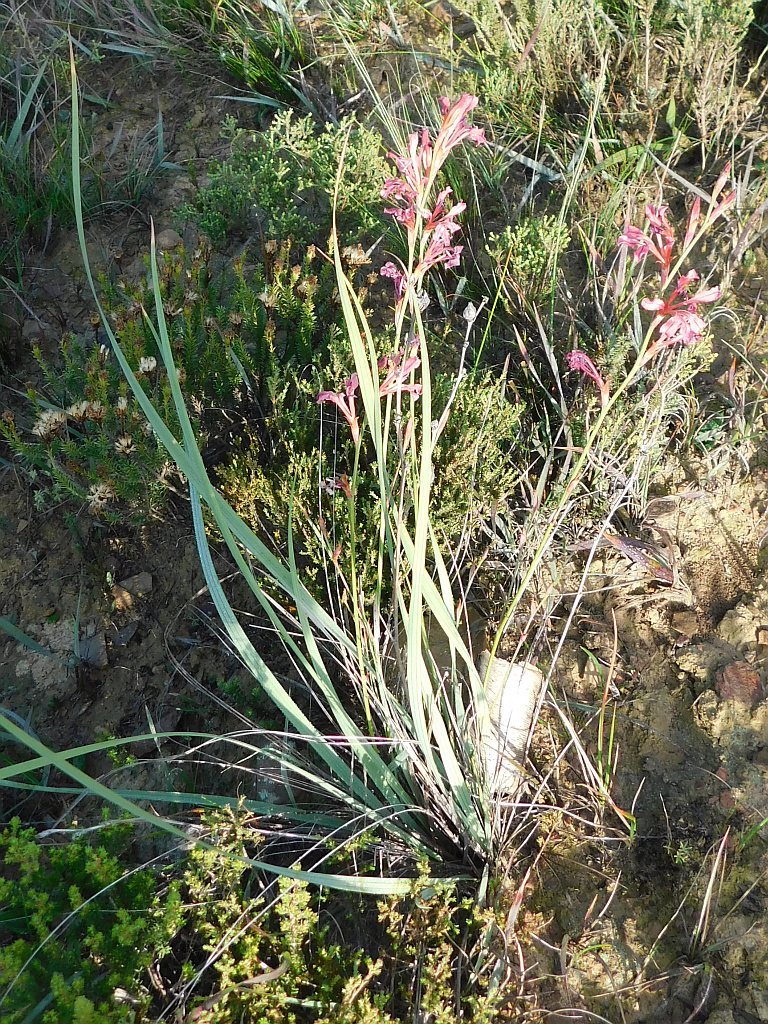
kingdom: Plantae
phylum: Tracheophyta
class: Liliopsida
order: Asparagales
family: Iridaceae
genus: Tritoniopsis
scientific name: Tritoniopsis lata
